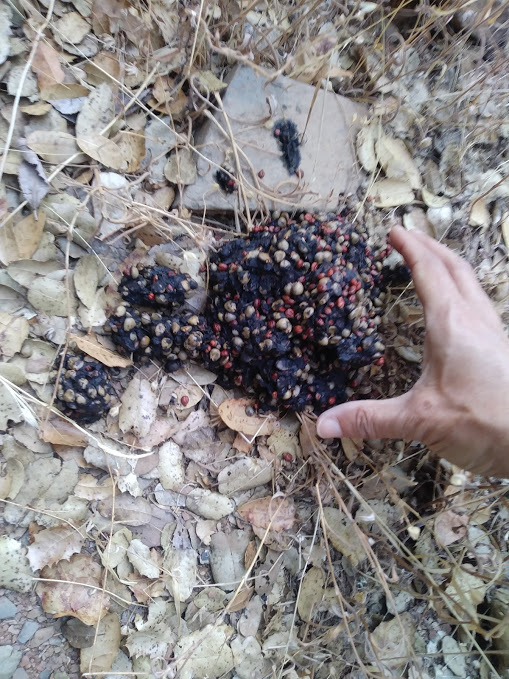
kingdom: Animalia
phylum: Chordata
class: Mammalia
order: Carnivora
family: Ursidae
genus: Ursus
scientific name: Ursus americanus
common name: American black bear
